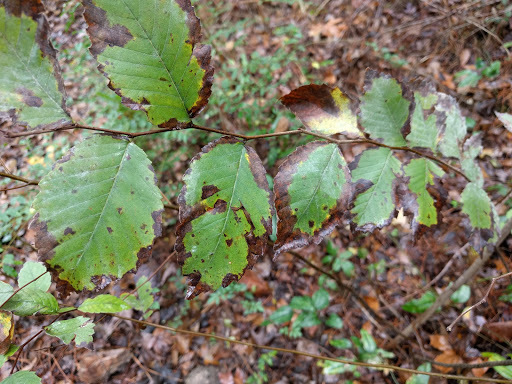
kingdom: Plantae
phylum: Tracheophyta
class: Magnoliopsida
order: Rosales
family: Ulmaceae
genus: Ulmus
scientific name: Ulmus americana
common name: American elm
